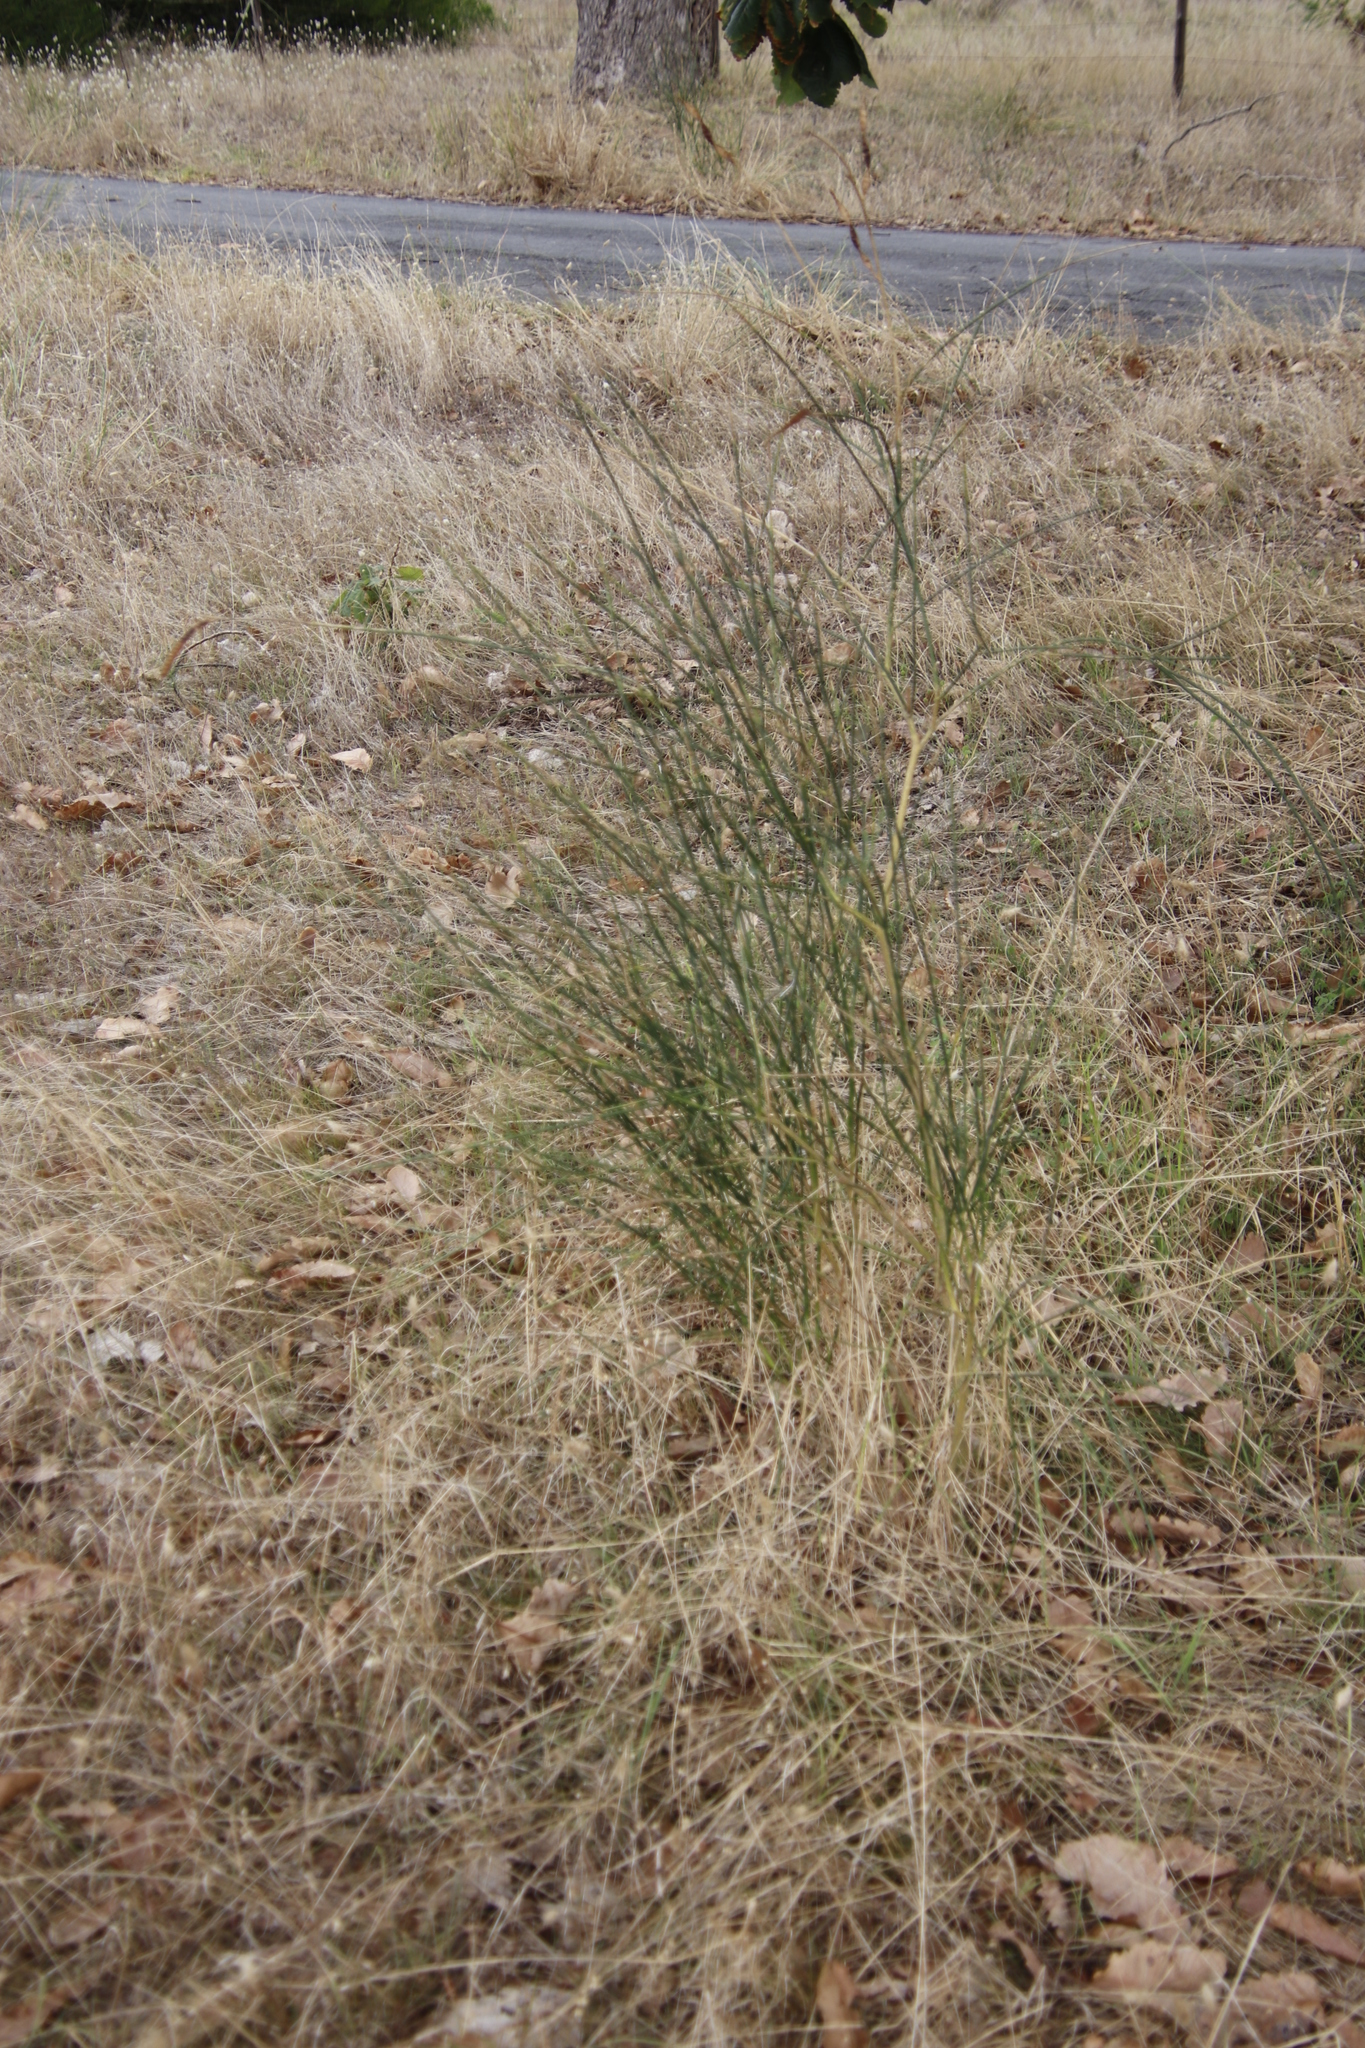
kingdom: Plantae
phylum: Tracheophyta
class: Magnoliopsida
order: Fabales
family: Fabaceae
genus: Spartium
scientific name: Spartium junceum
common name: Spanish broom
